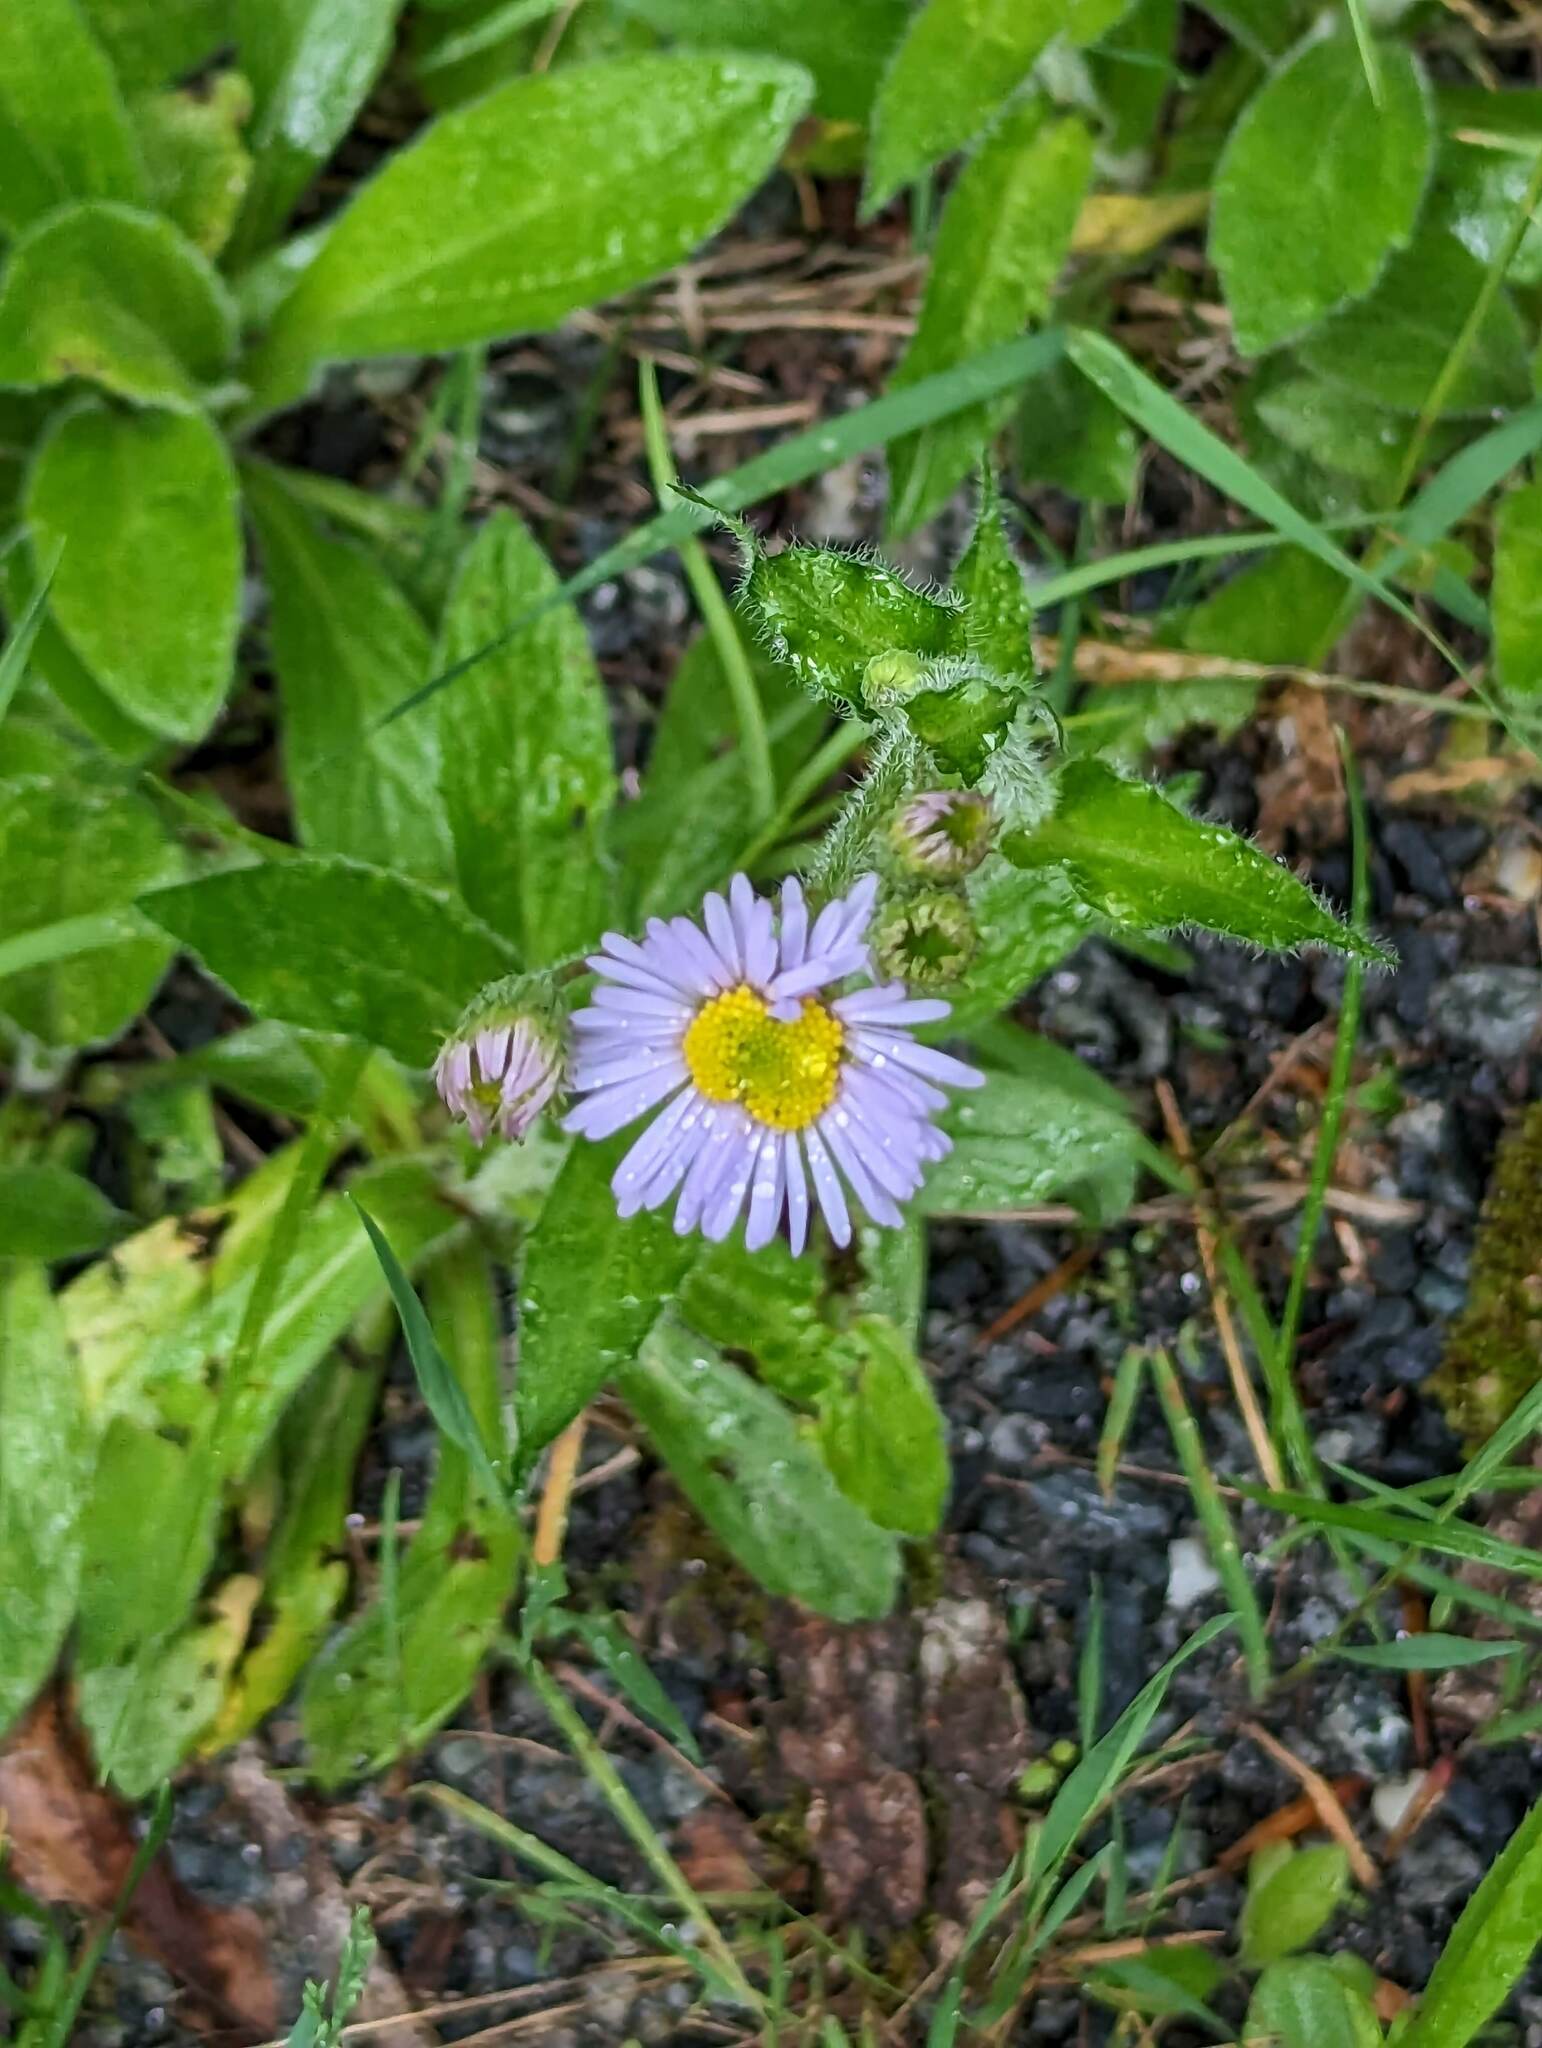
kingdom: Plantae
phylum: Tracheophyta
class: Magnoliopsida
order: Asterales
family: Asteraceae
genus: Erigeron
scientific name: Erigeron pulchellus
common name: Hairy fleabane
